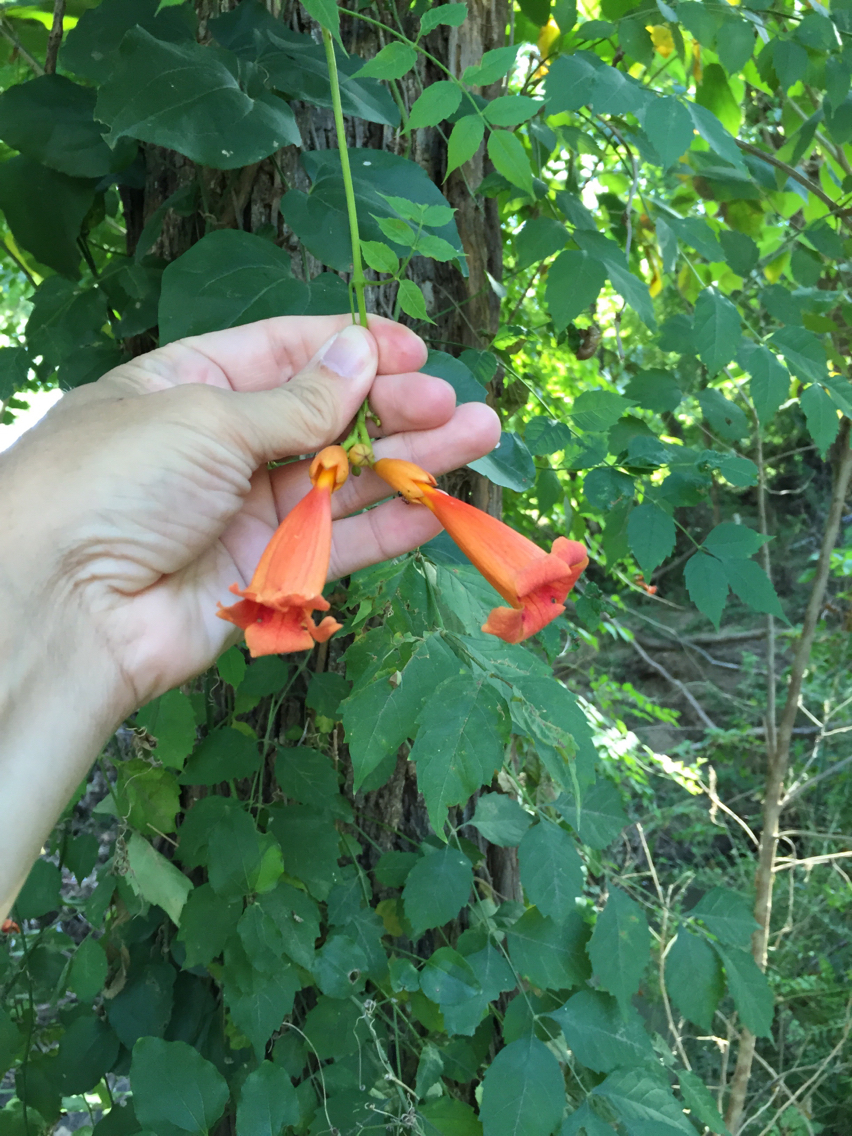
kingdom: Plantae
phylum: Tracheophyta
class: Magnoliopsida
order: Lamiales
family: Bignoniaceae
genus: Campsis
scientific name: Campsis radicans
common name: Trumpet-creeper
